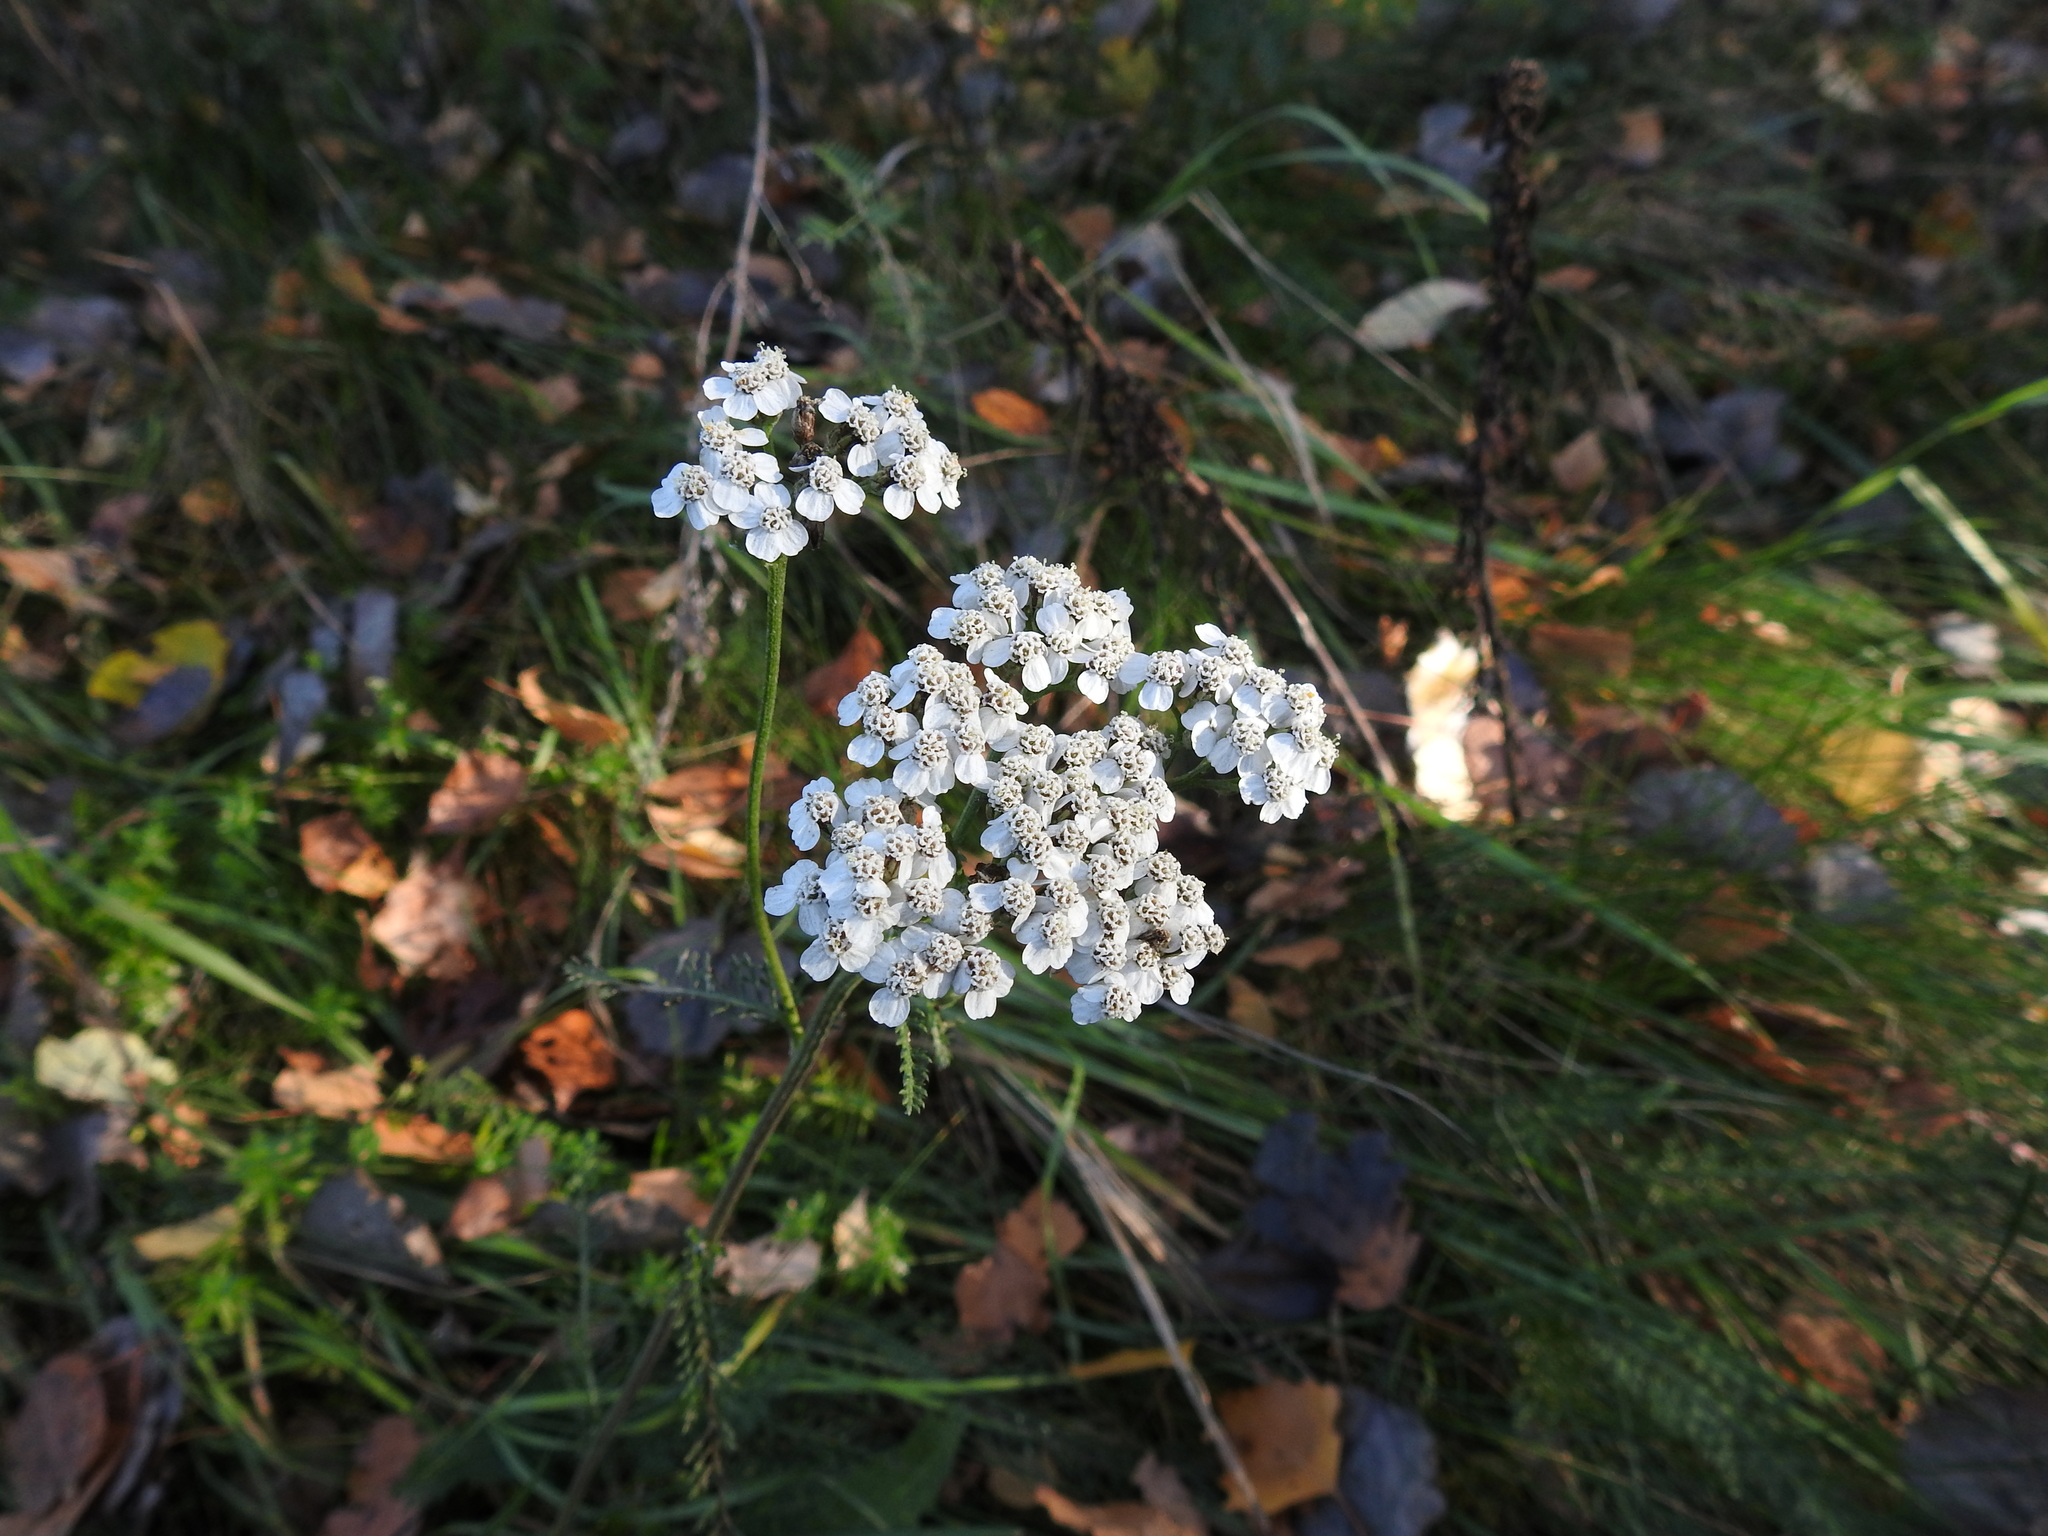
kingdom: Plantae
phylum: Tracheophyta
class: Magnoliopsida
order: Asterales
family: Asteraceae
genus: Achillea
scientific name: Achillea millefolium
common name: Yarrow
